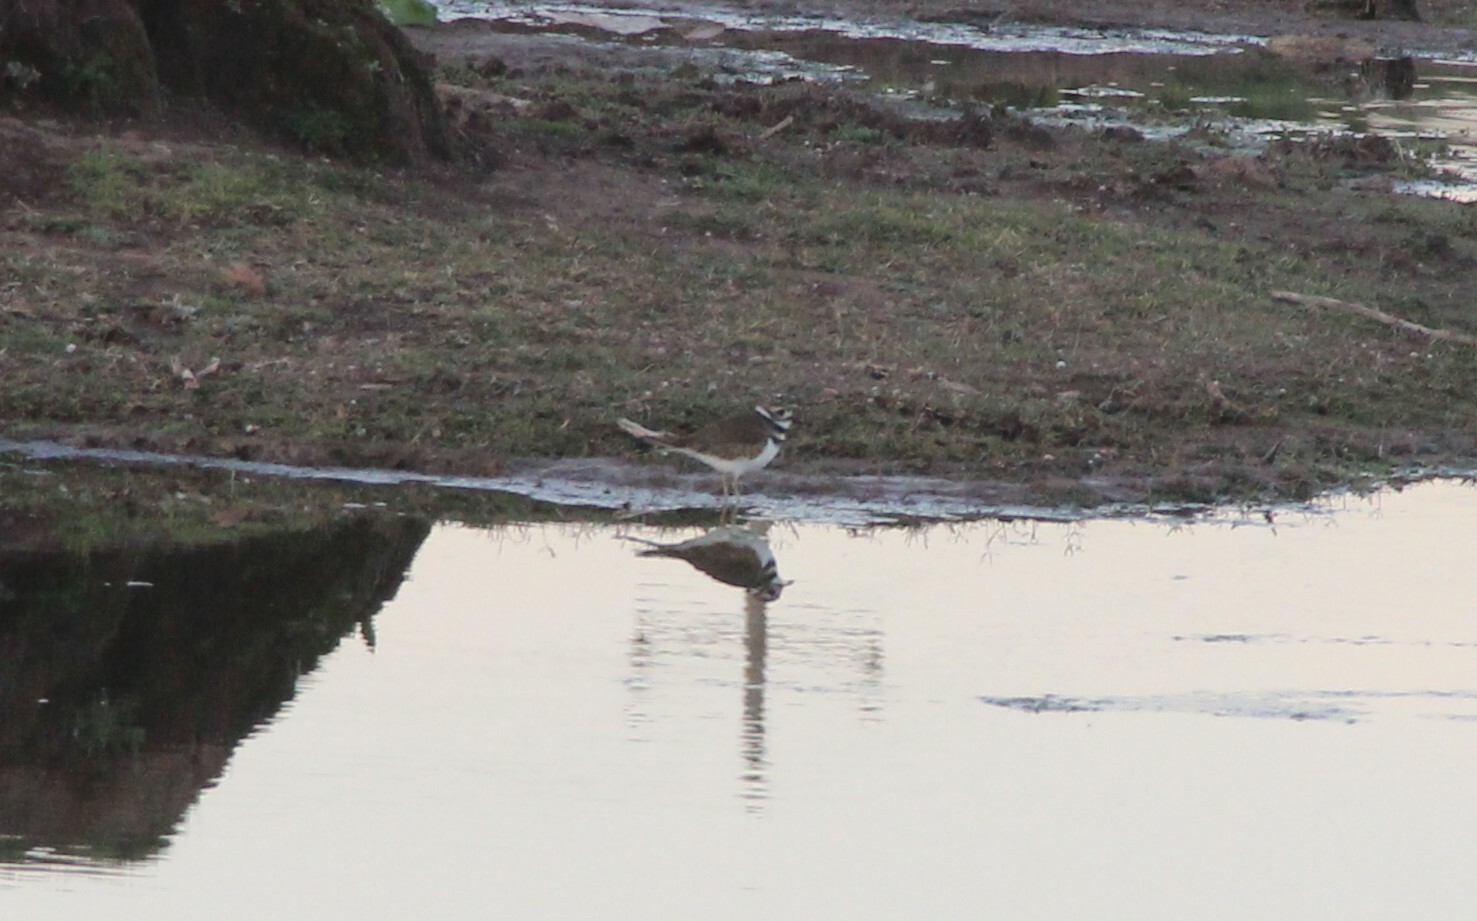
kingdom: Animalia
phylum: Chordata
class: Aves
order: Charadriiformes
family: Charadriidae
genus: Charadrius
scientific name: Charadrius vociferus
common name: Killdeer
